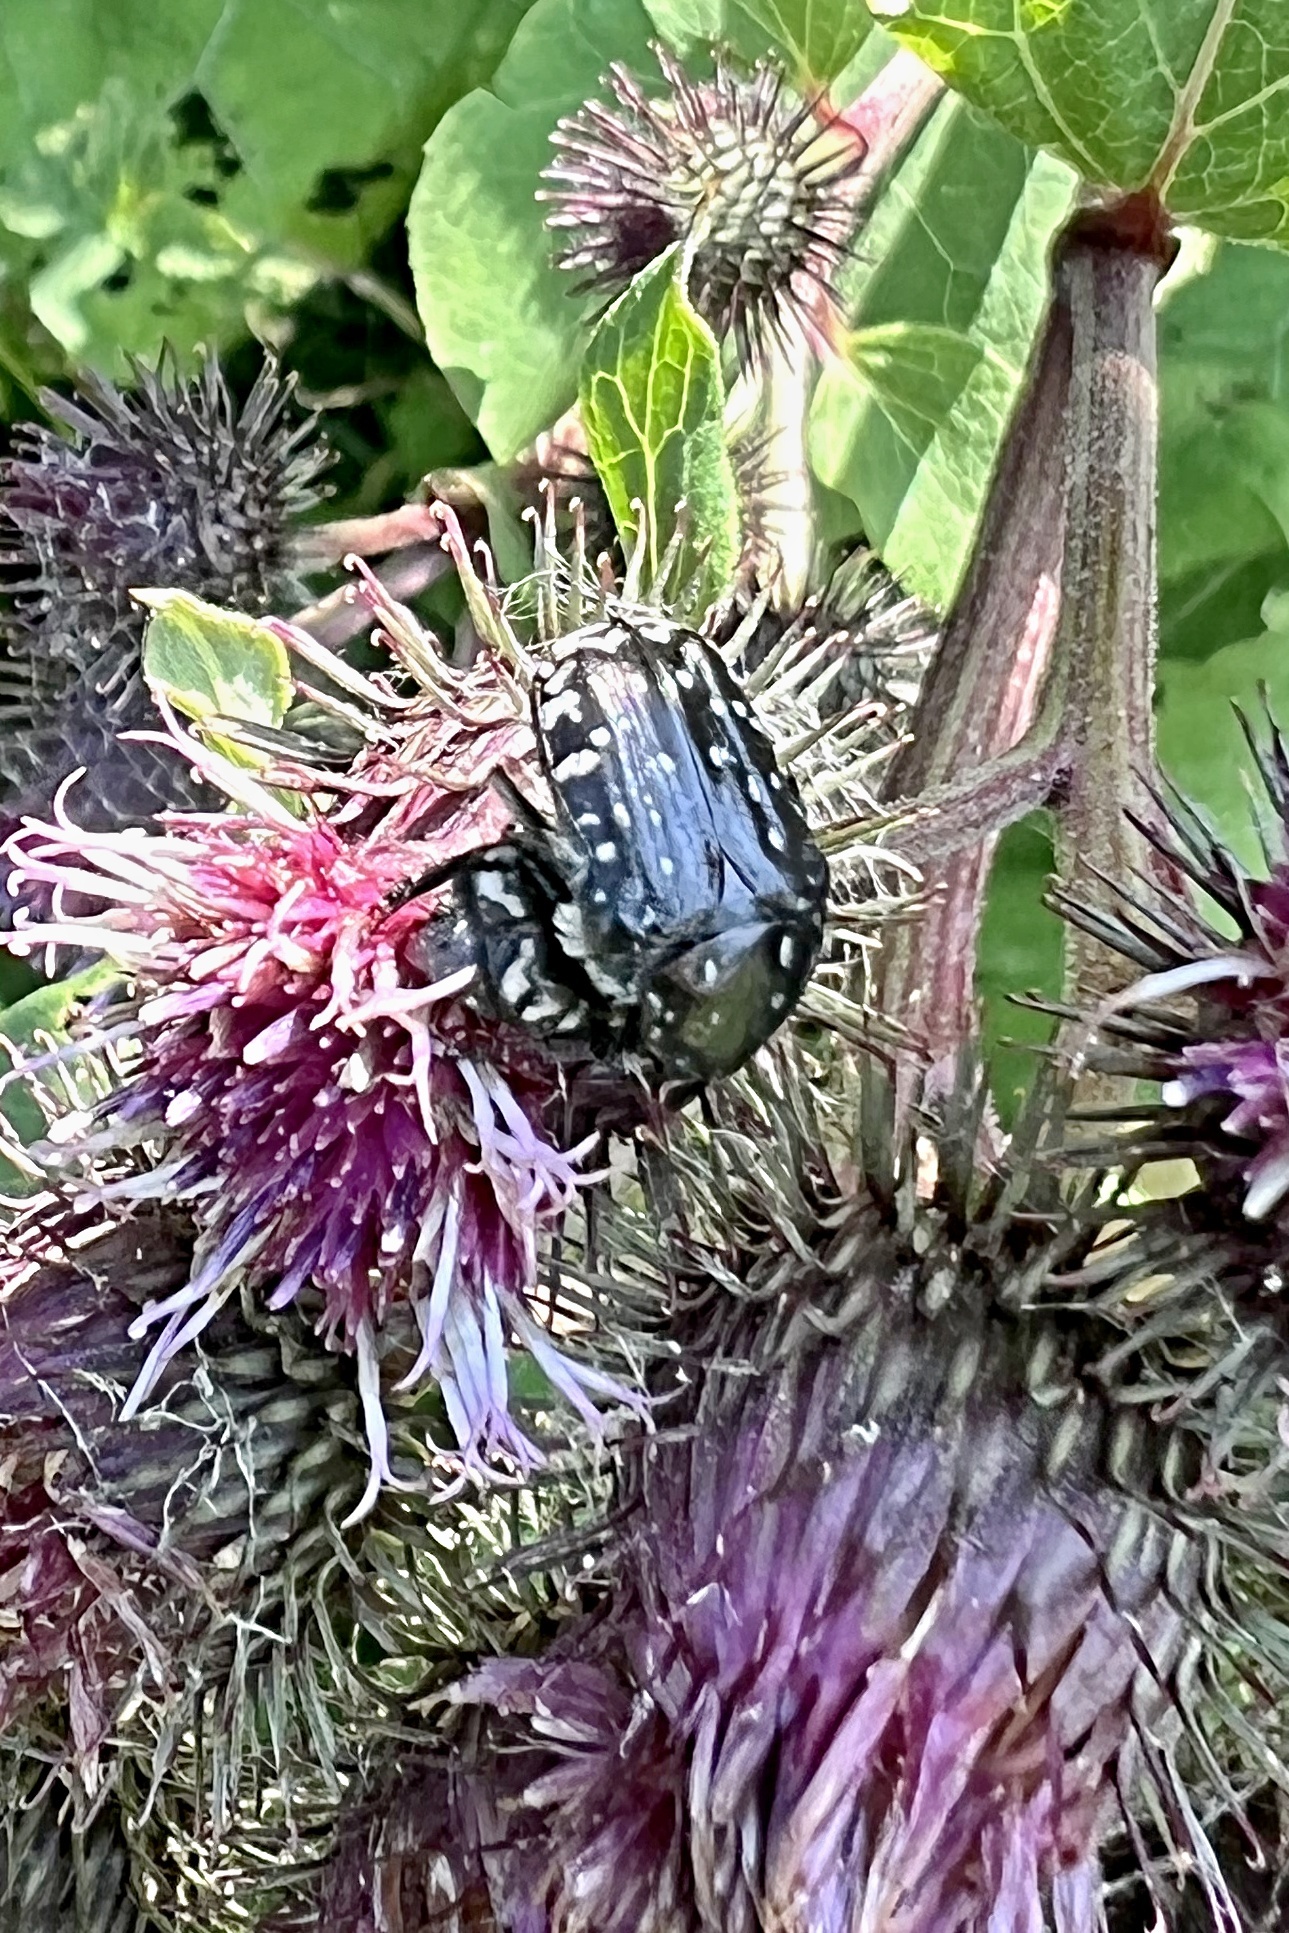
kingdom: Animalia
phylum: Arthropoda
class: Insecta
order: Coleoptera
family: Scarabaeidae
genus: Oxythyrea
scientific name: Oxythyrea funesta
